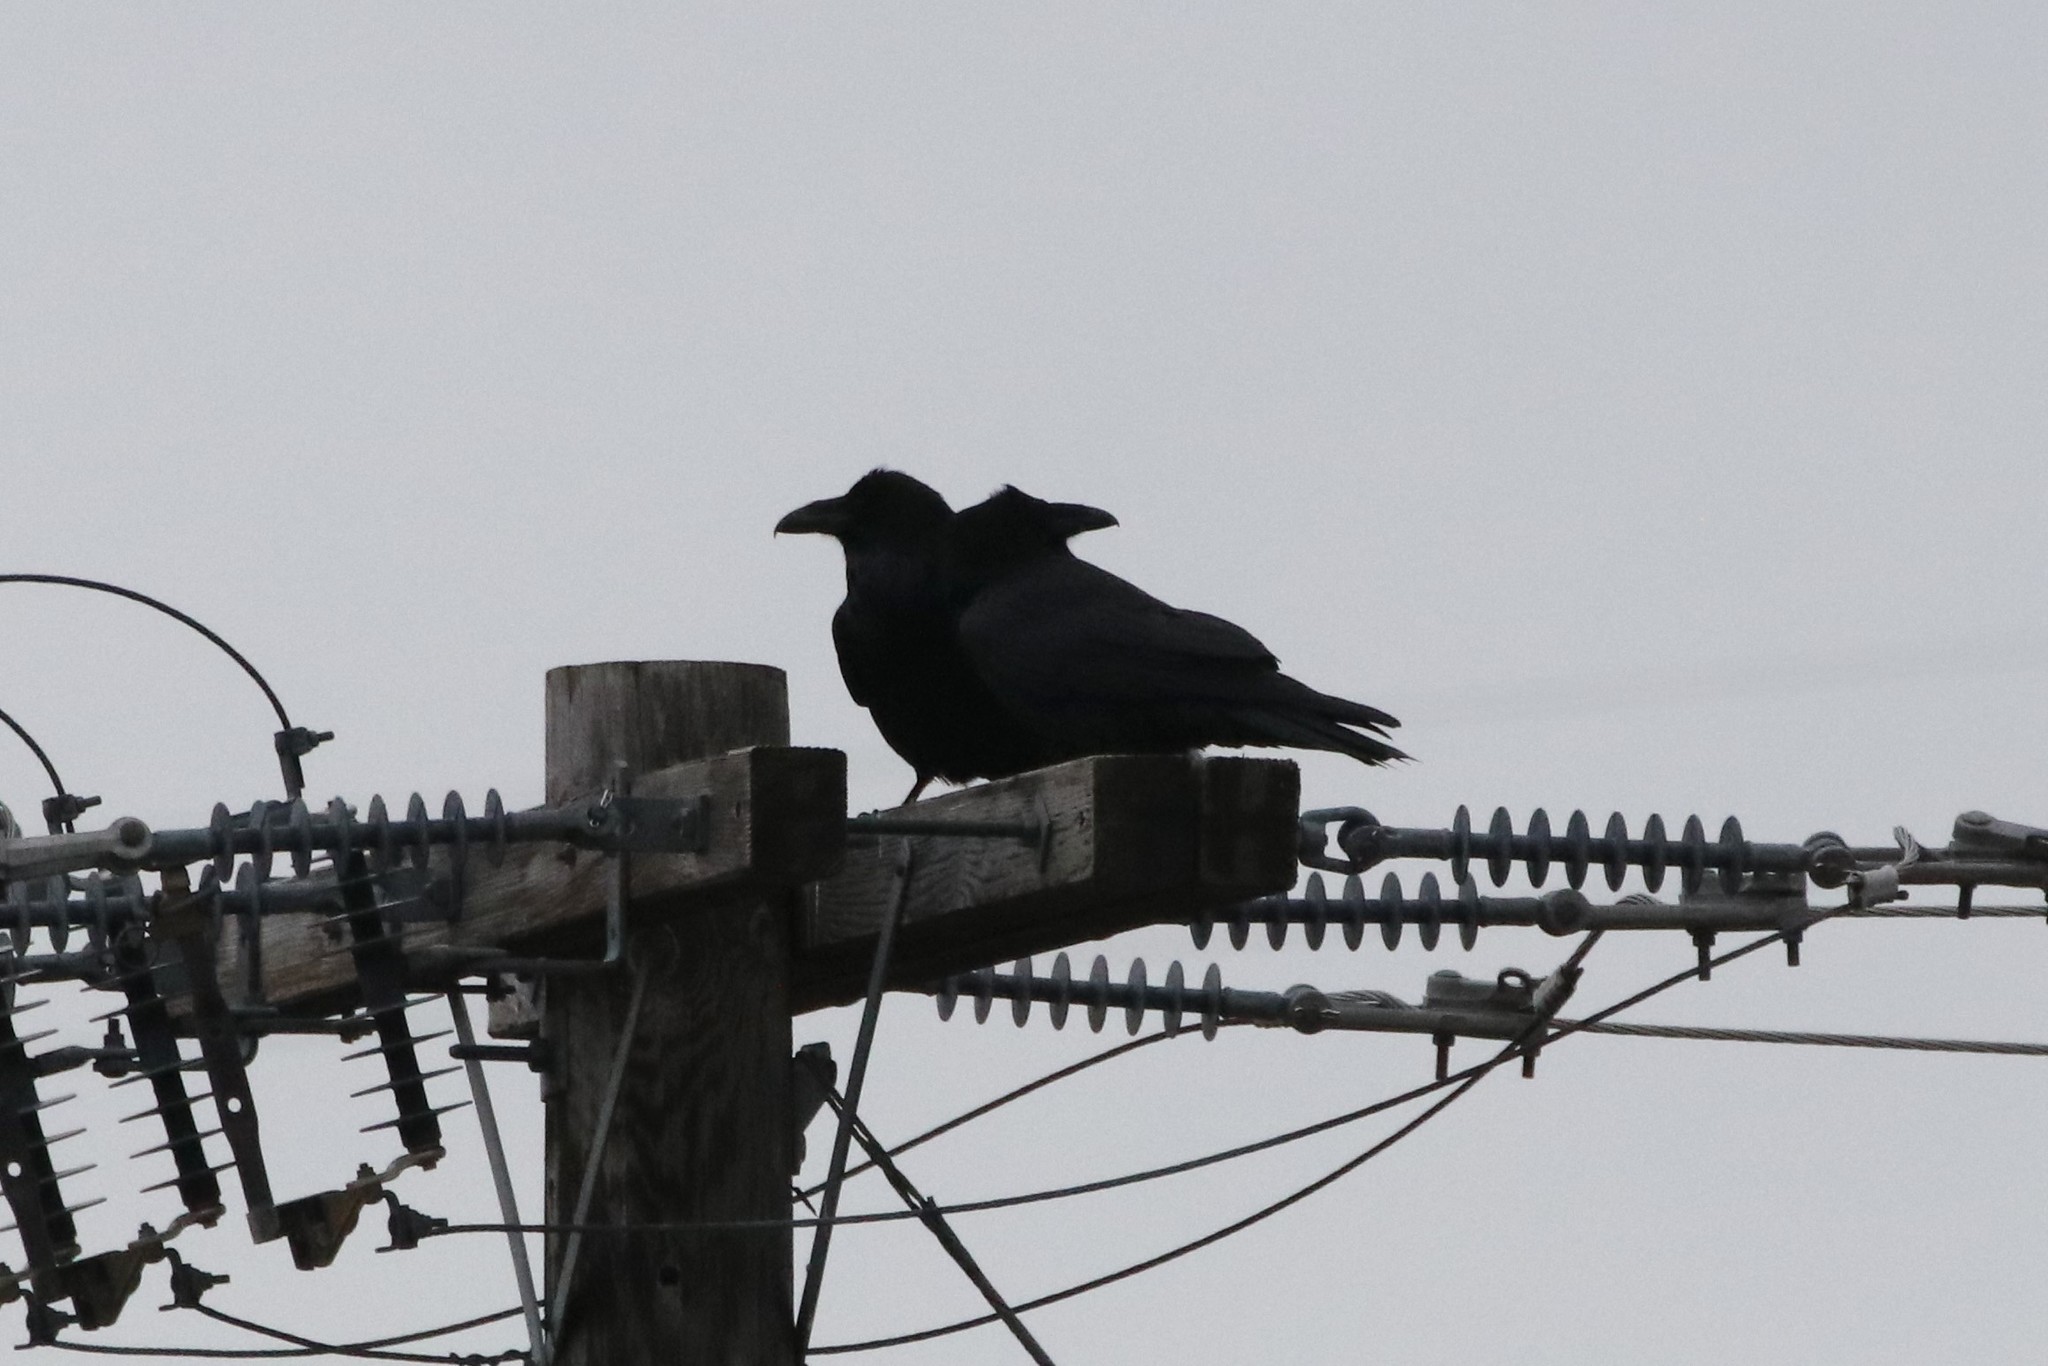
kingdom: Animalia
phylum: Chordata
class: Aves
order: Passeriformes
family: Corvidae
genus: Corvus
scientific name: Corvus corax
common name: Common raven
